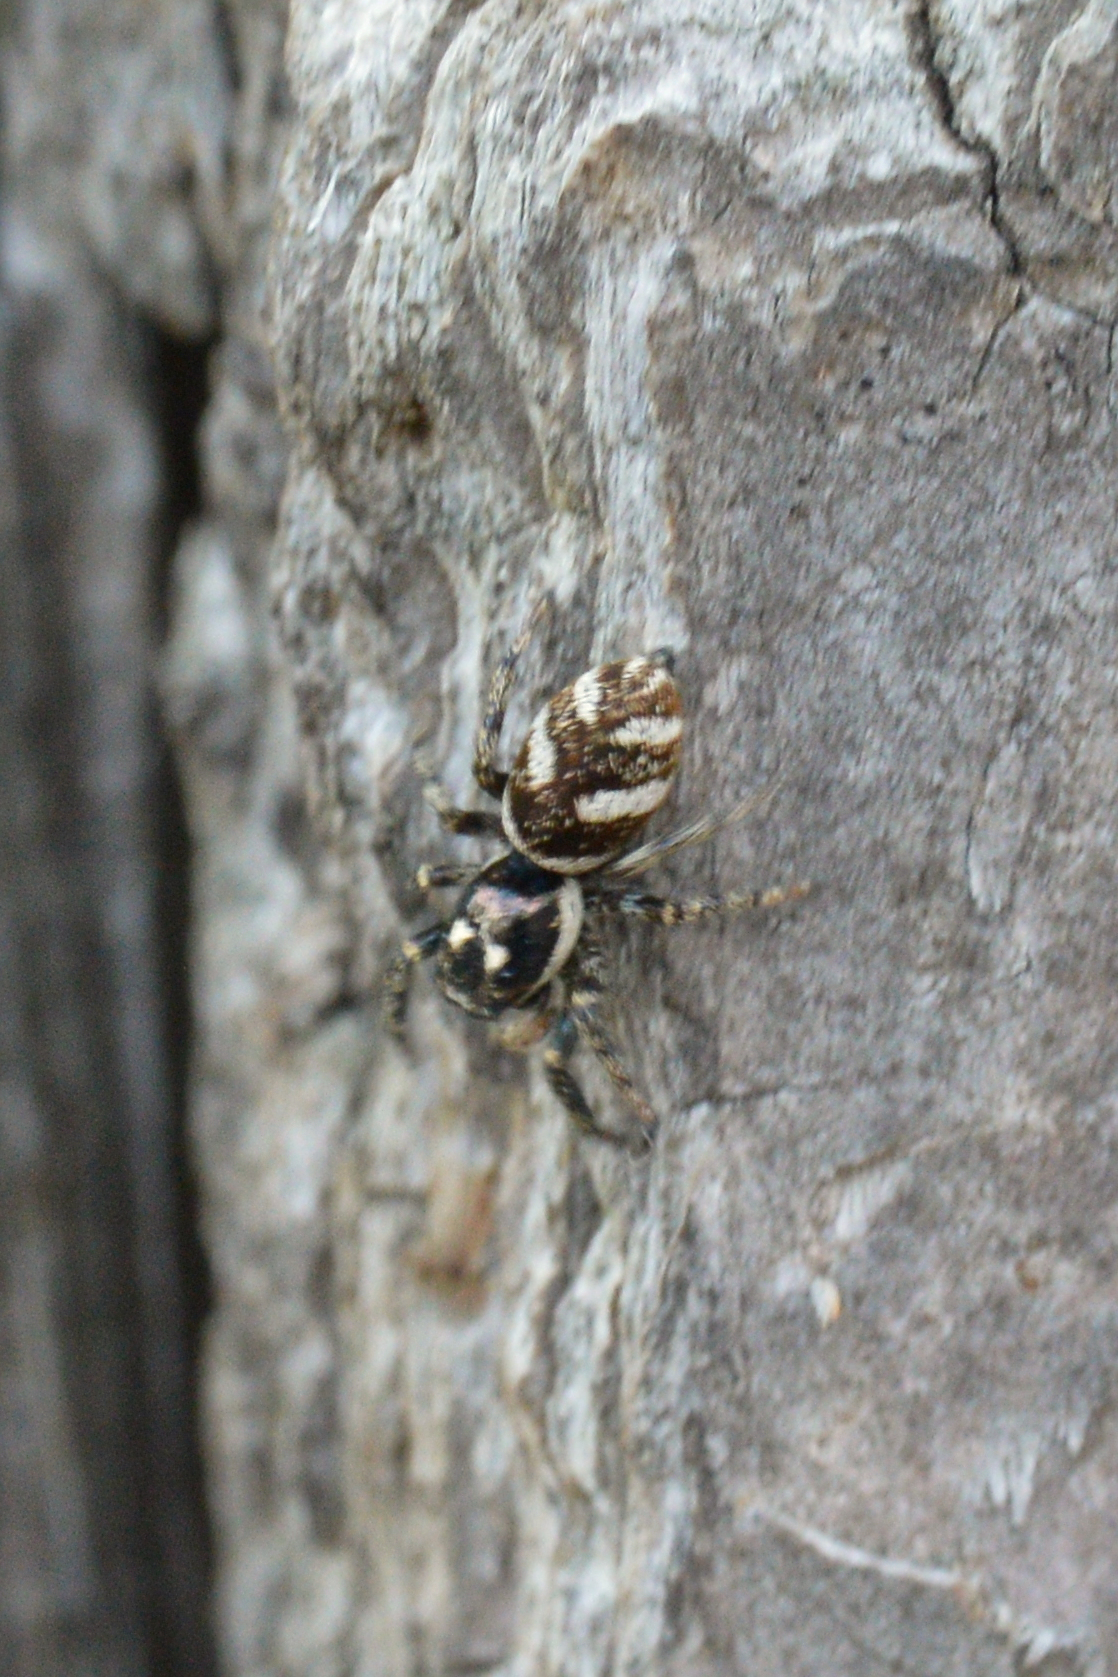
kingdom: Animalia
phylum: Arthropoda
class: Arachnida
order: Araneae
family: Salticidae
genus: Salticus
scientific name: Salticus scenicus
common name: Zebra jumper
